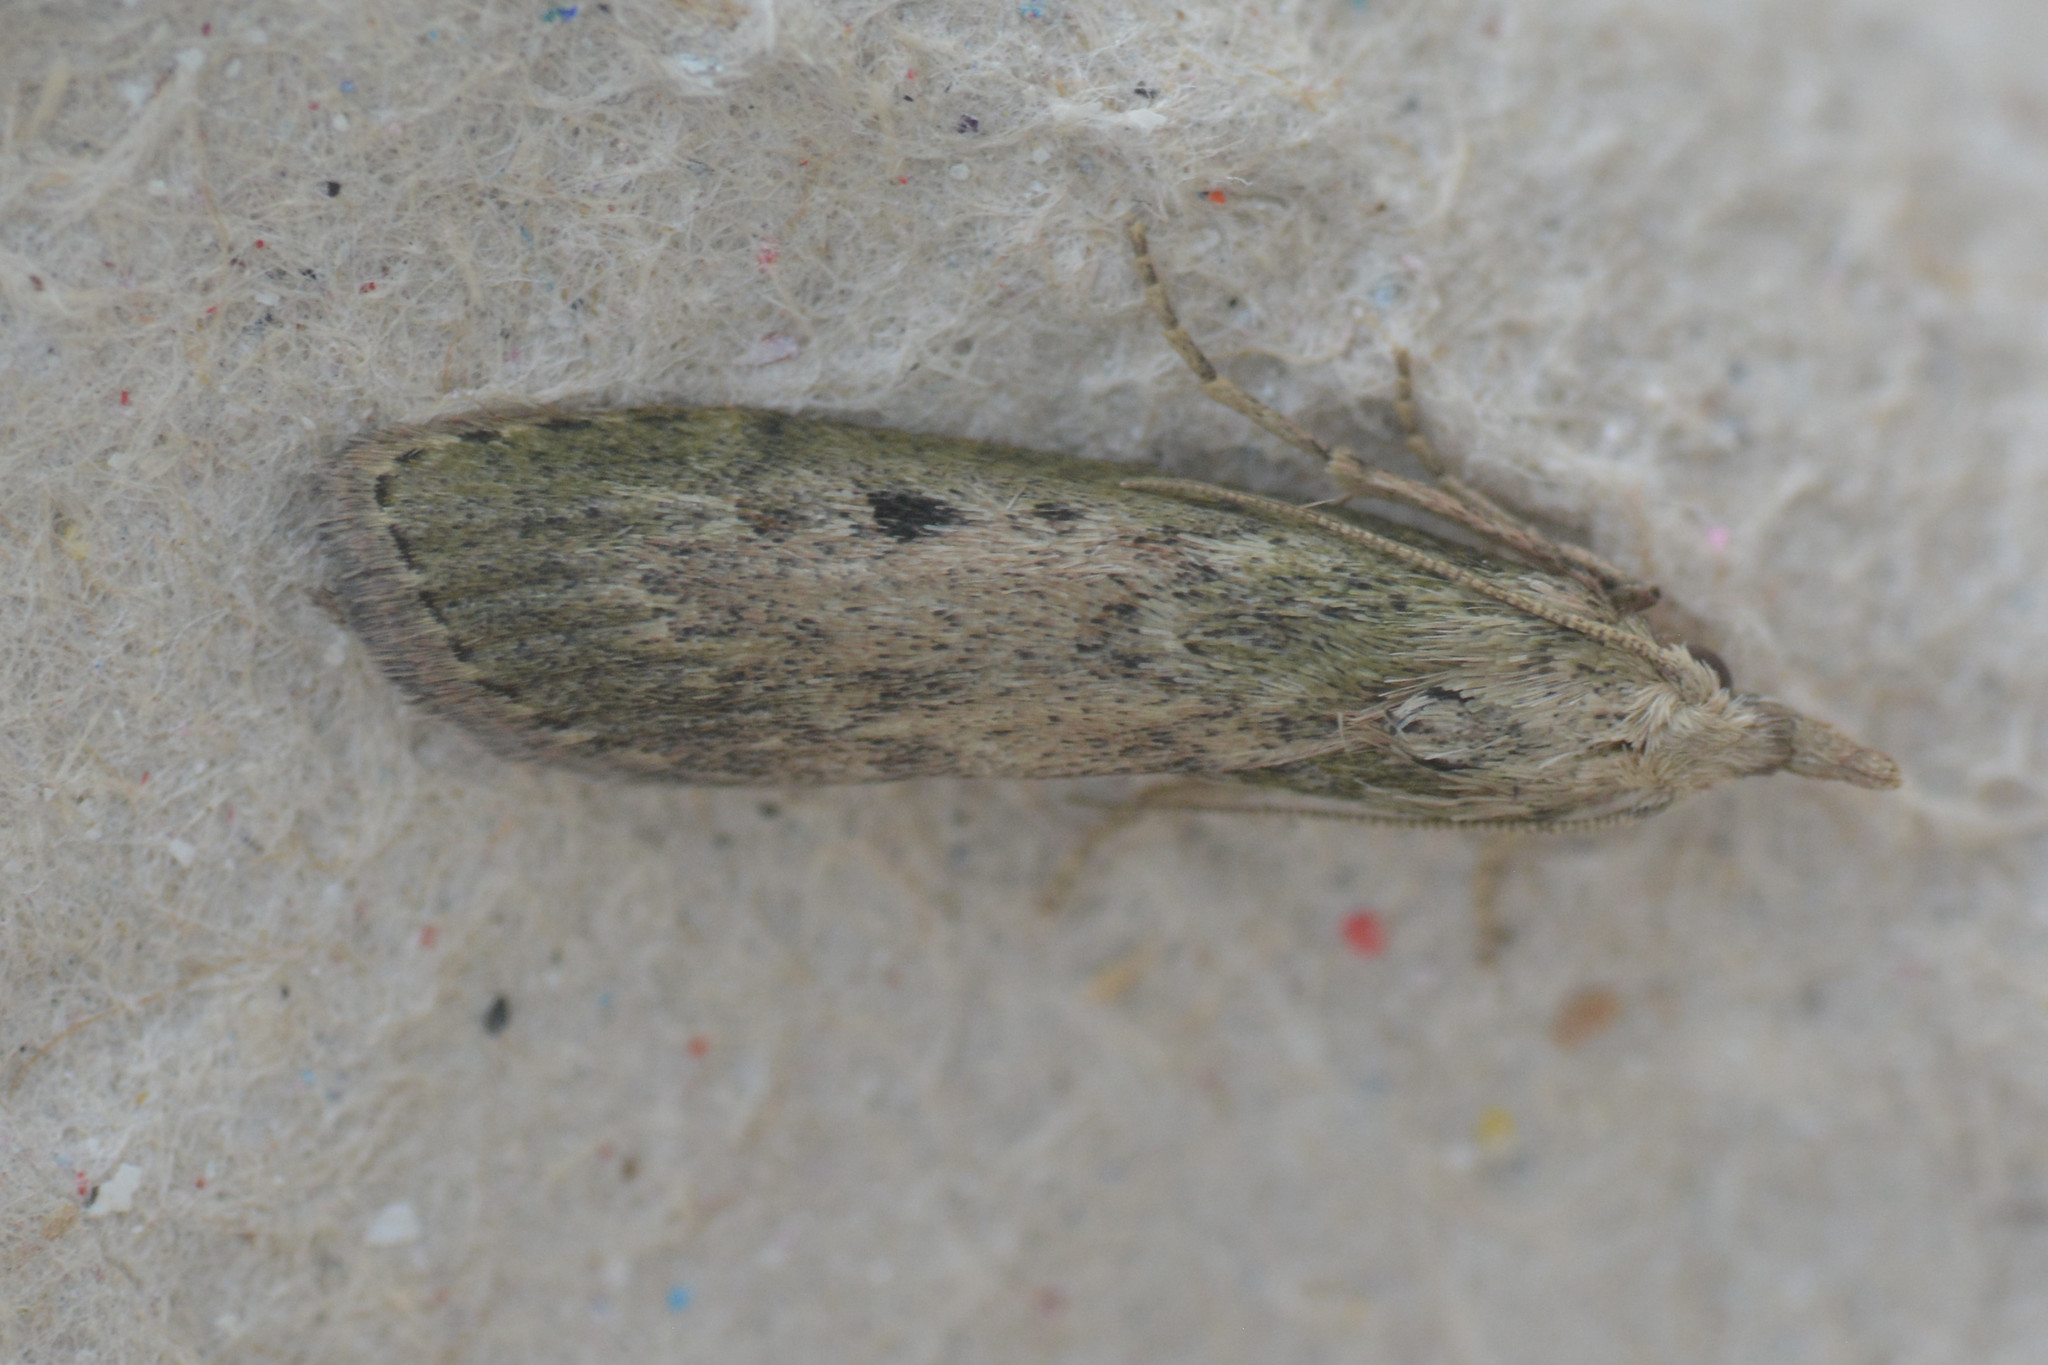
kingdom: Animalia
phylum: Arthropoda
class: Insecta
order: Lepidoptera
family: Pyralidae
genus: Aphomia
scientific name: Aphomia sociella
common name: Bee moth
